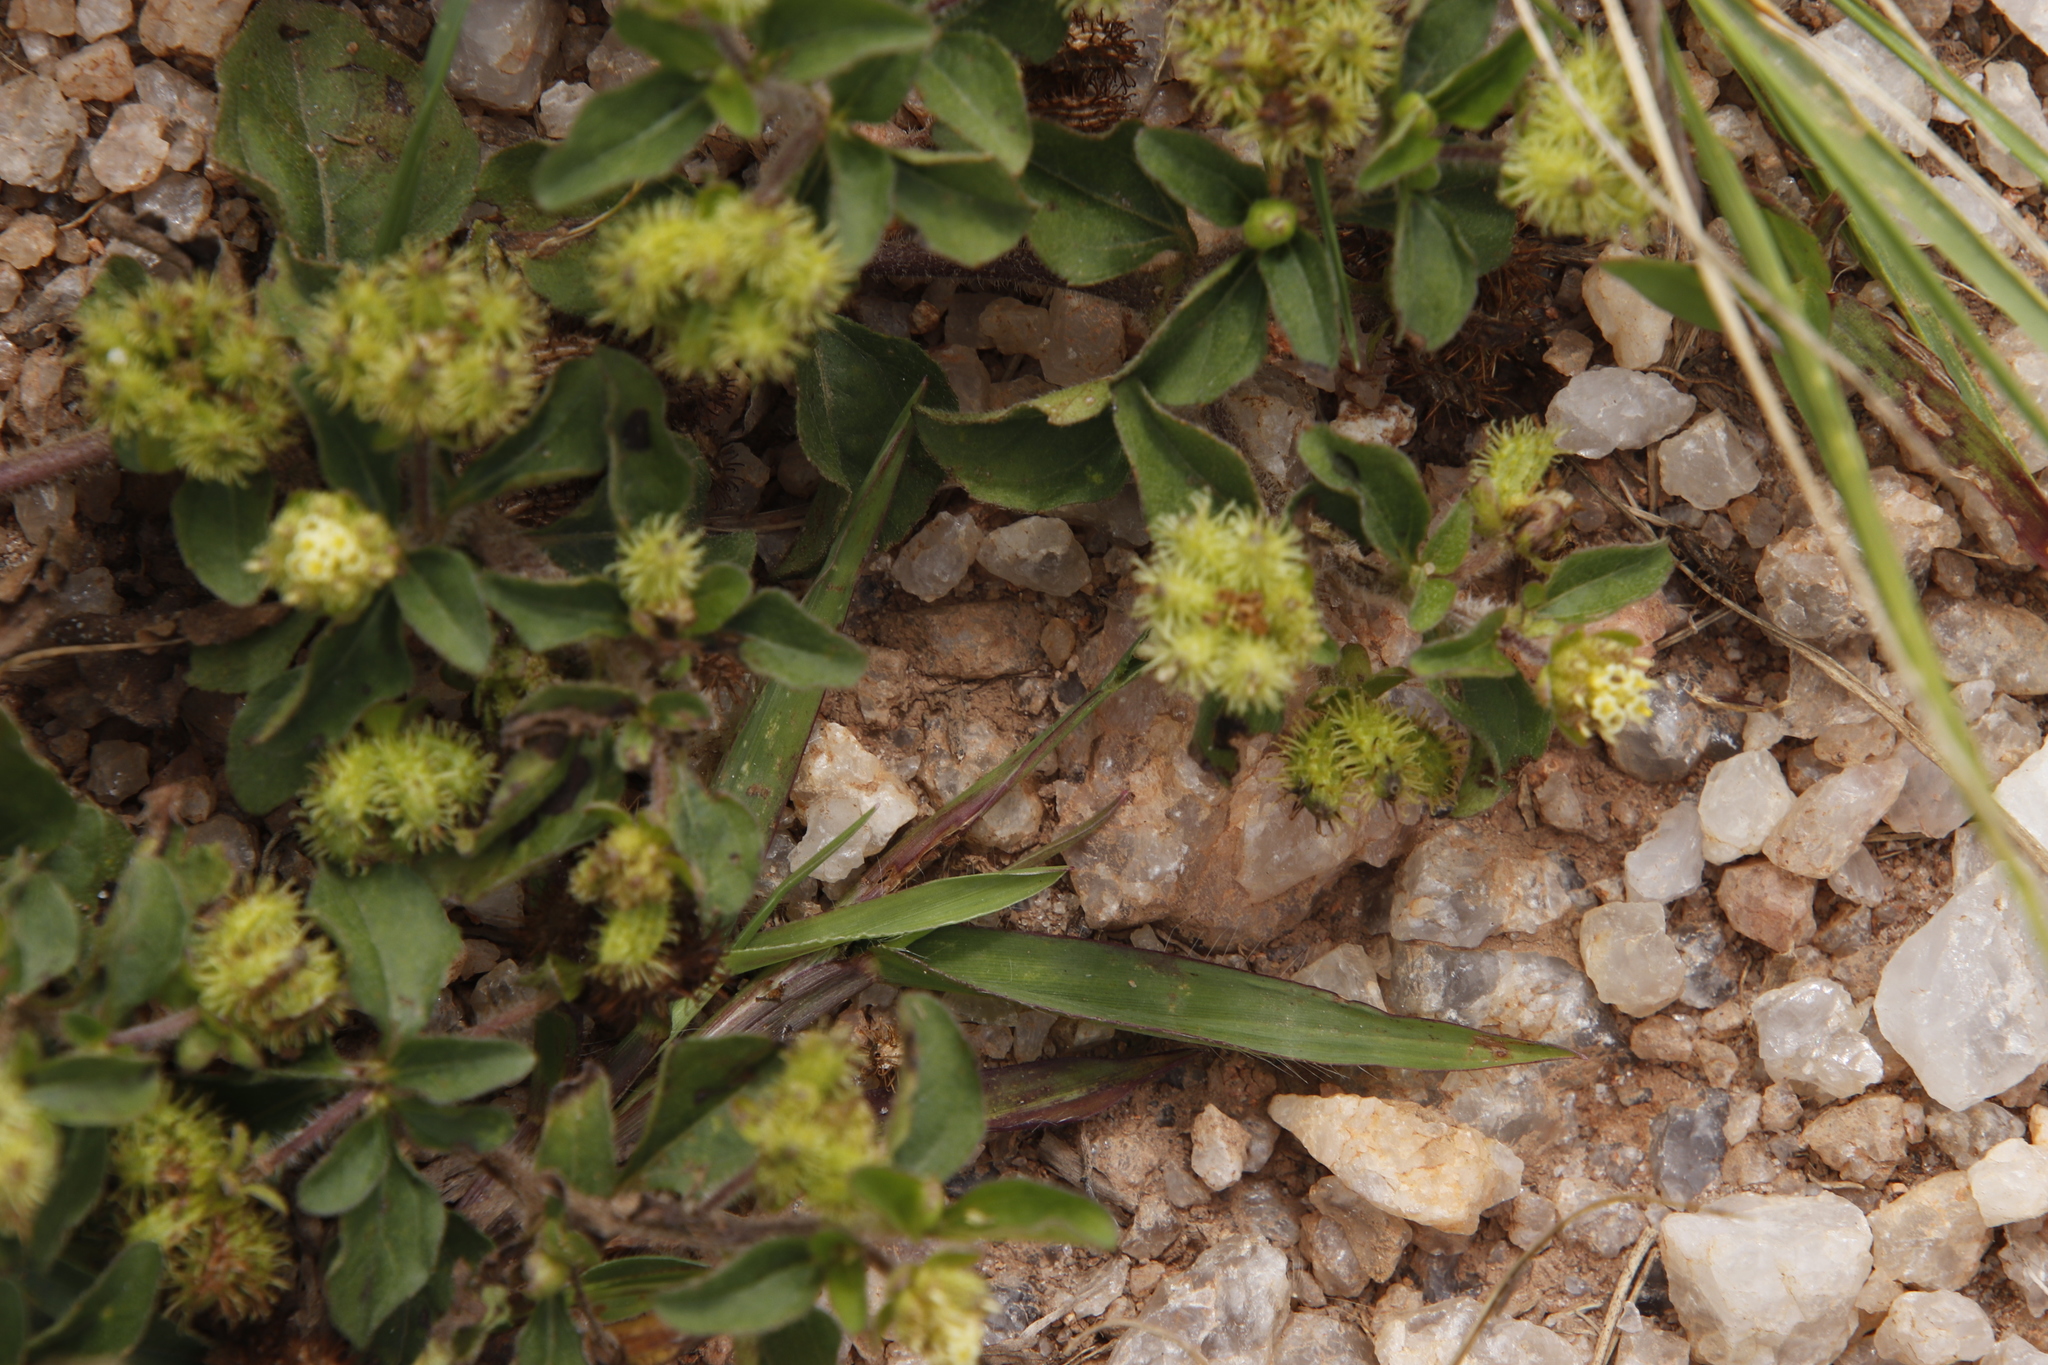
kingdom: Plantae
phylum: Tracheophyta
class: Magnoliopsida
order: Asterales
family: Asteraceae
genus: Acanthospermum
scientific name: Acanthospermum australe
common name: Paraguayan starbur
